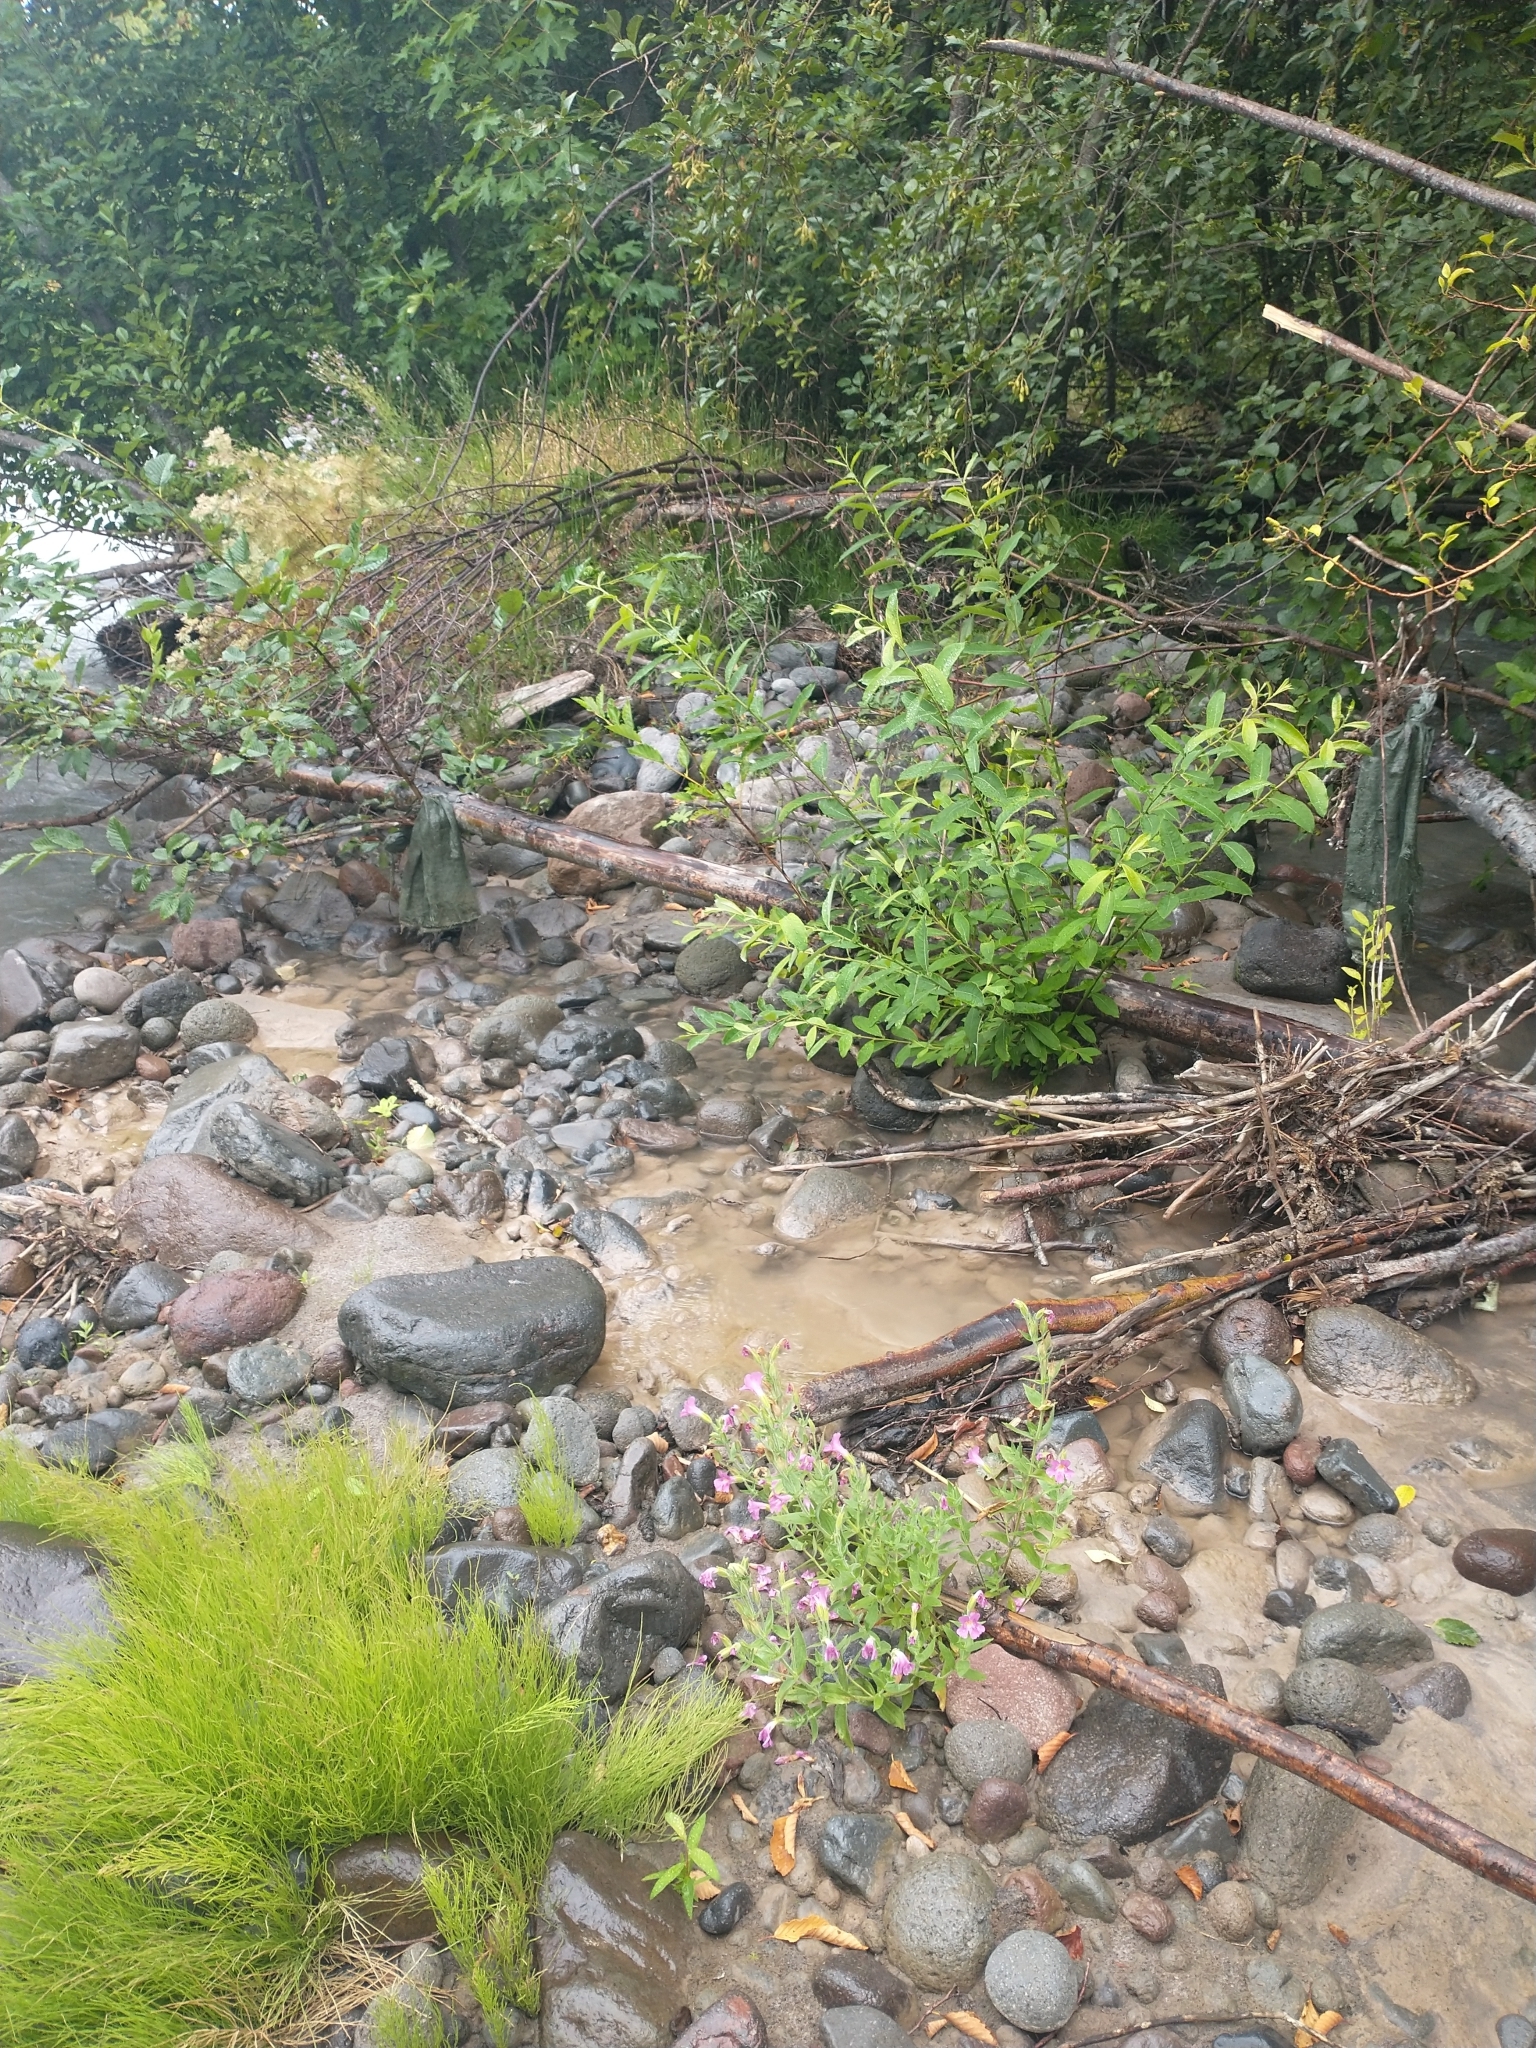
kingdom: Plantae
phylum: Tracheophyta
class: Magnoliopsida
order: Lamiales
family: Phrymaceae
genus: Erythranthe
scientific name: Erythranthe lewisii
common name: Lewis's monkey-flower
